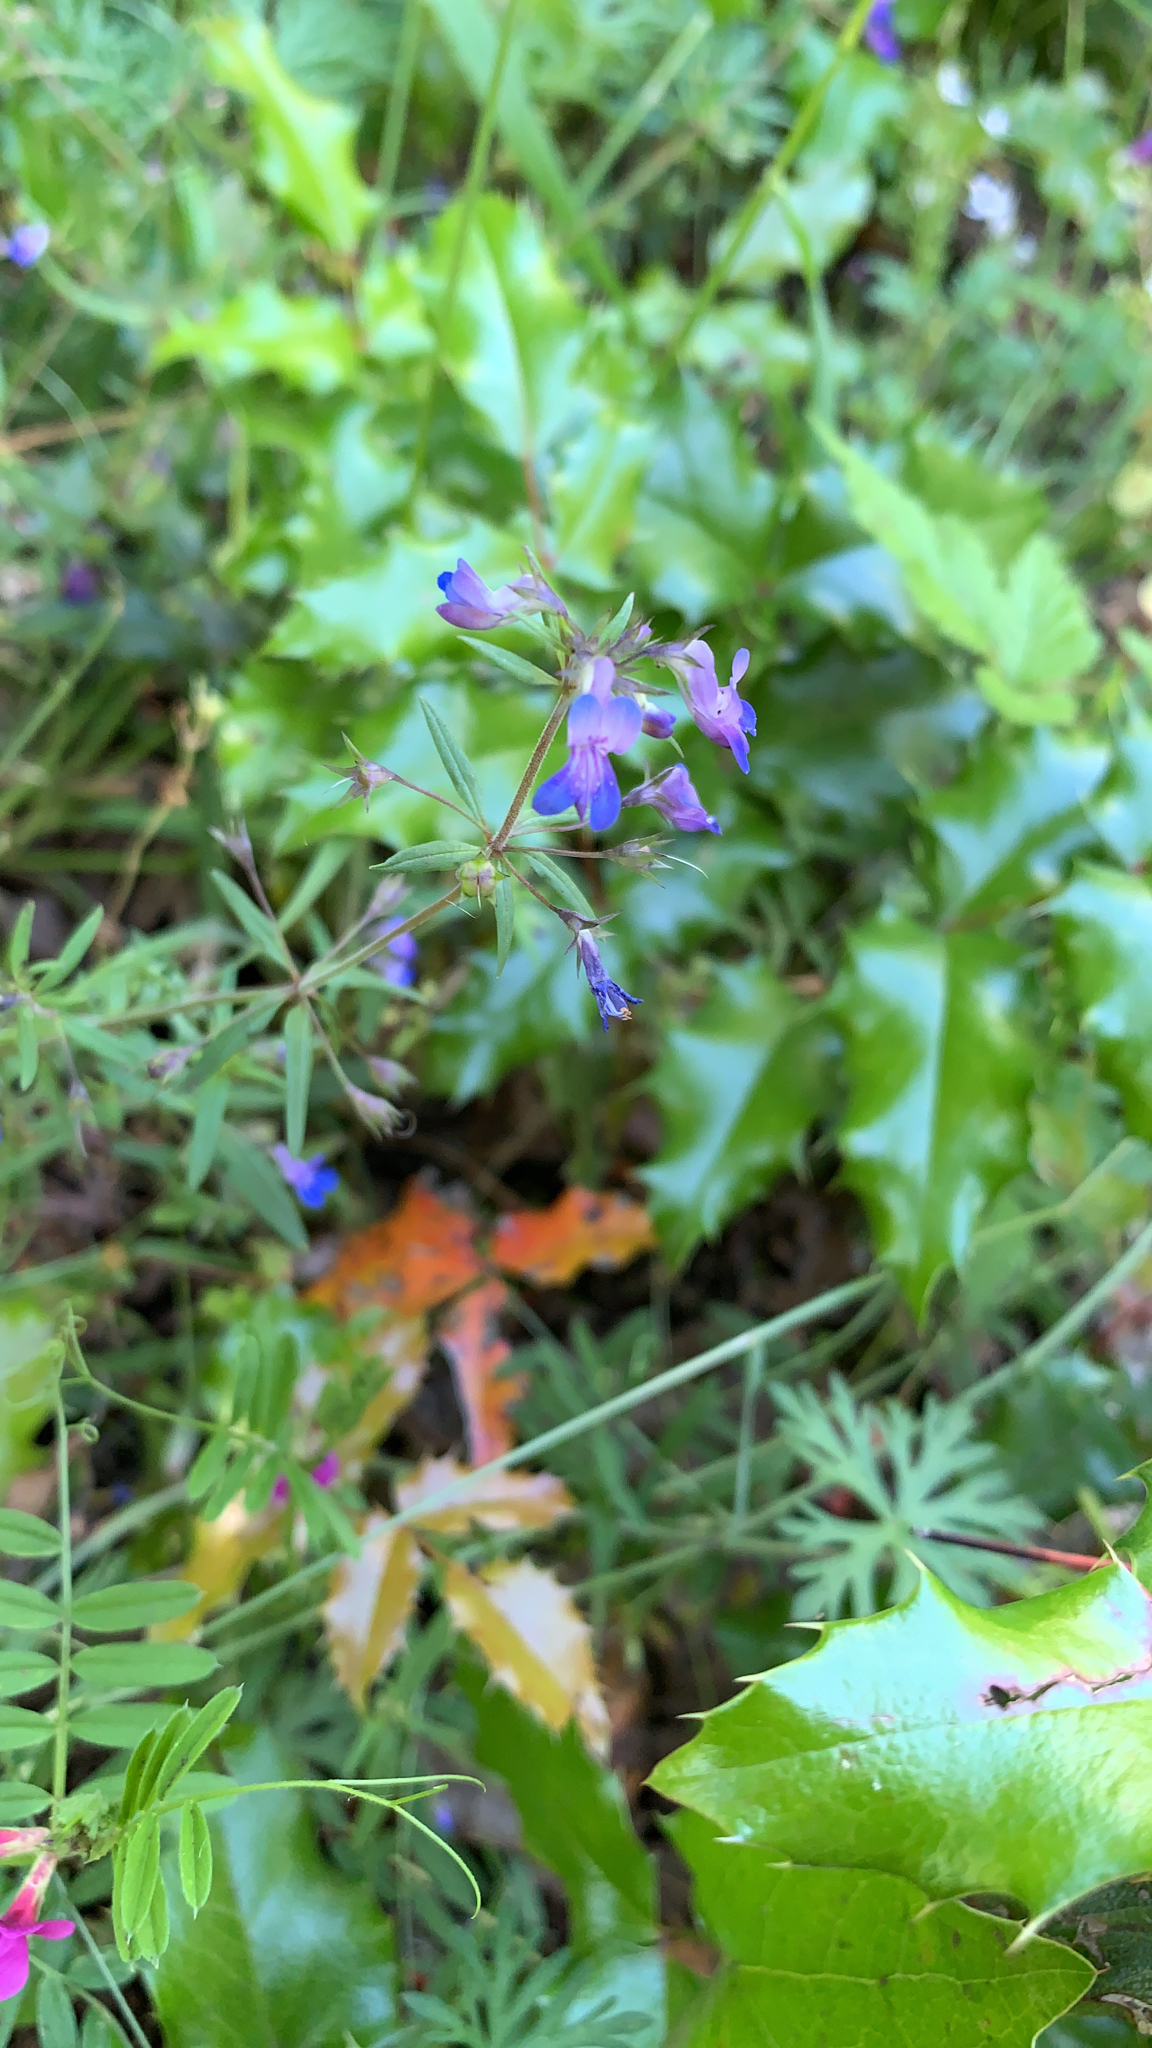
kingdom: Plantae
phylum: Tracheophyta
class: Magnoliopsida
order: Lamiales
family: Plantaginaceae
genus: Collinsia
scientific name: Collinsia parviflora
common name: Blue-lips
